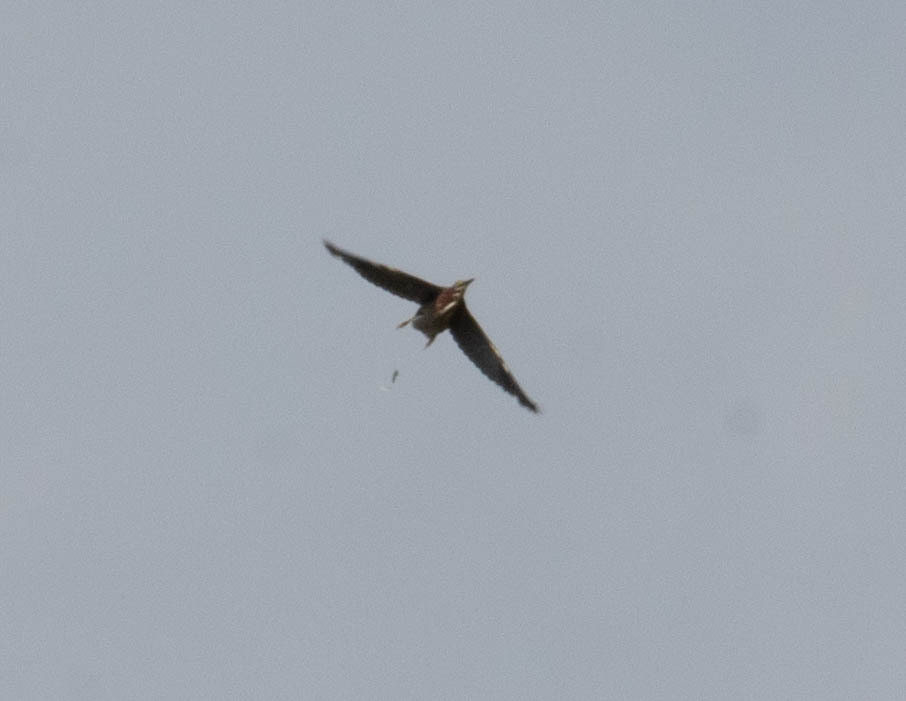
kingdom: Animalia
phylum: Chordata
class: Aves
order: Pelecaniformes
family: Ardeidae
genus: Butorides
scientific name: Butorides virescens
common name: Green heron
